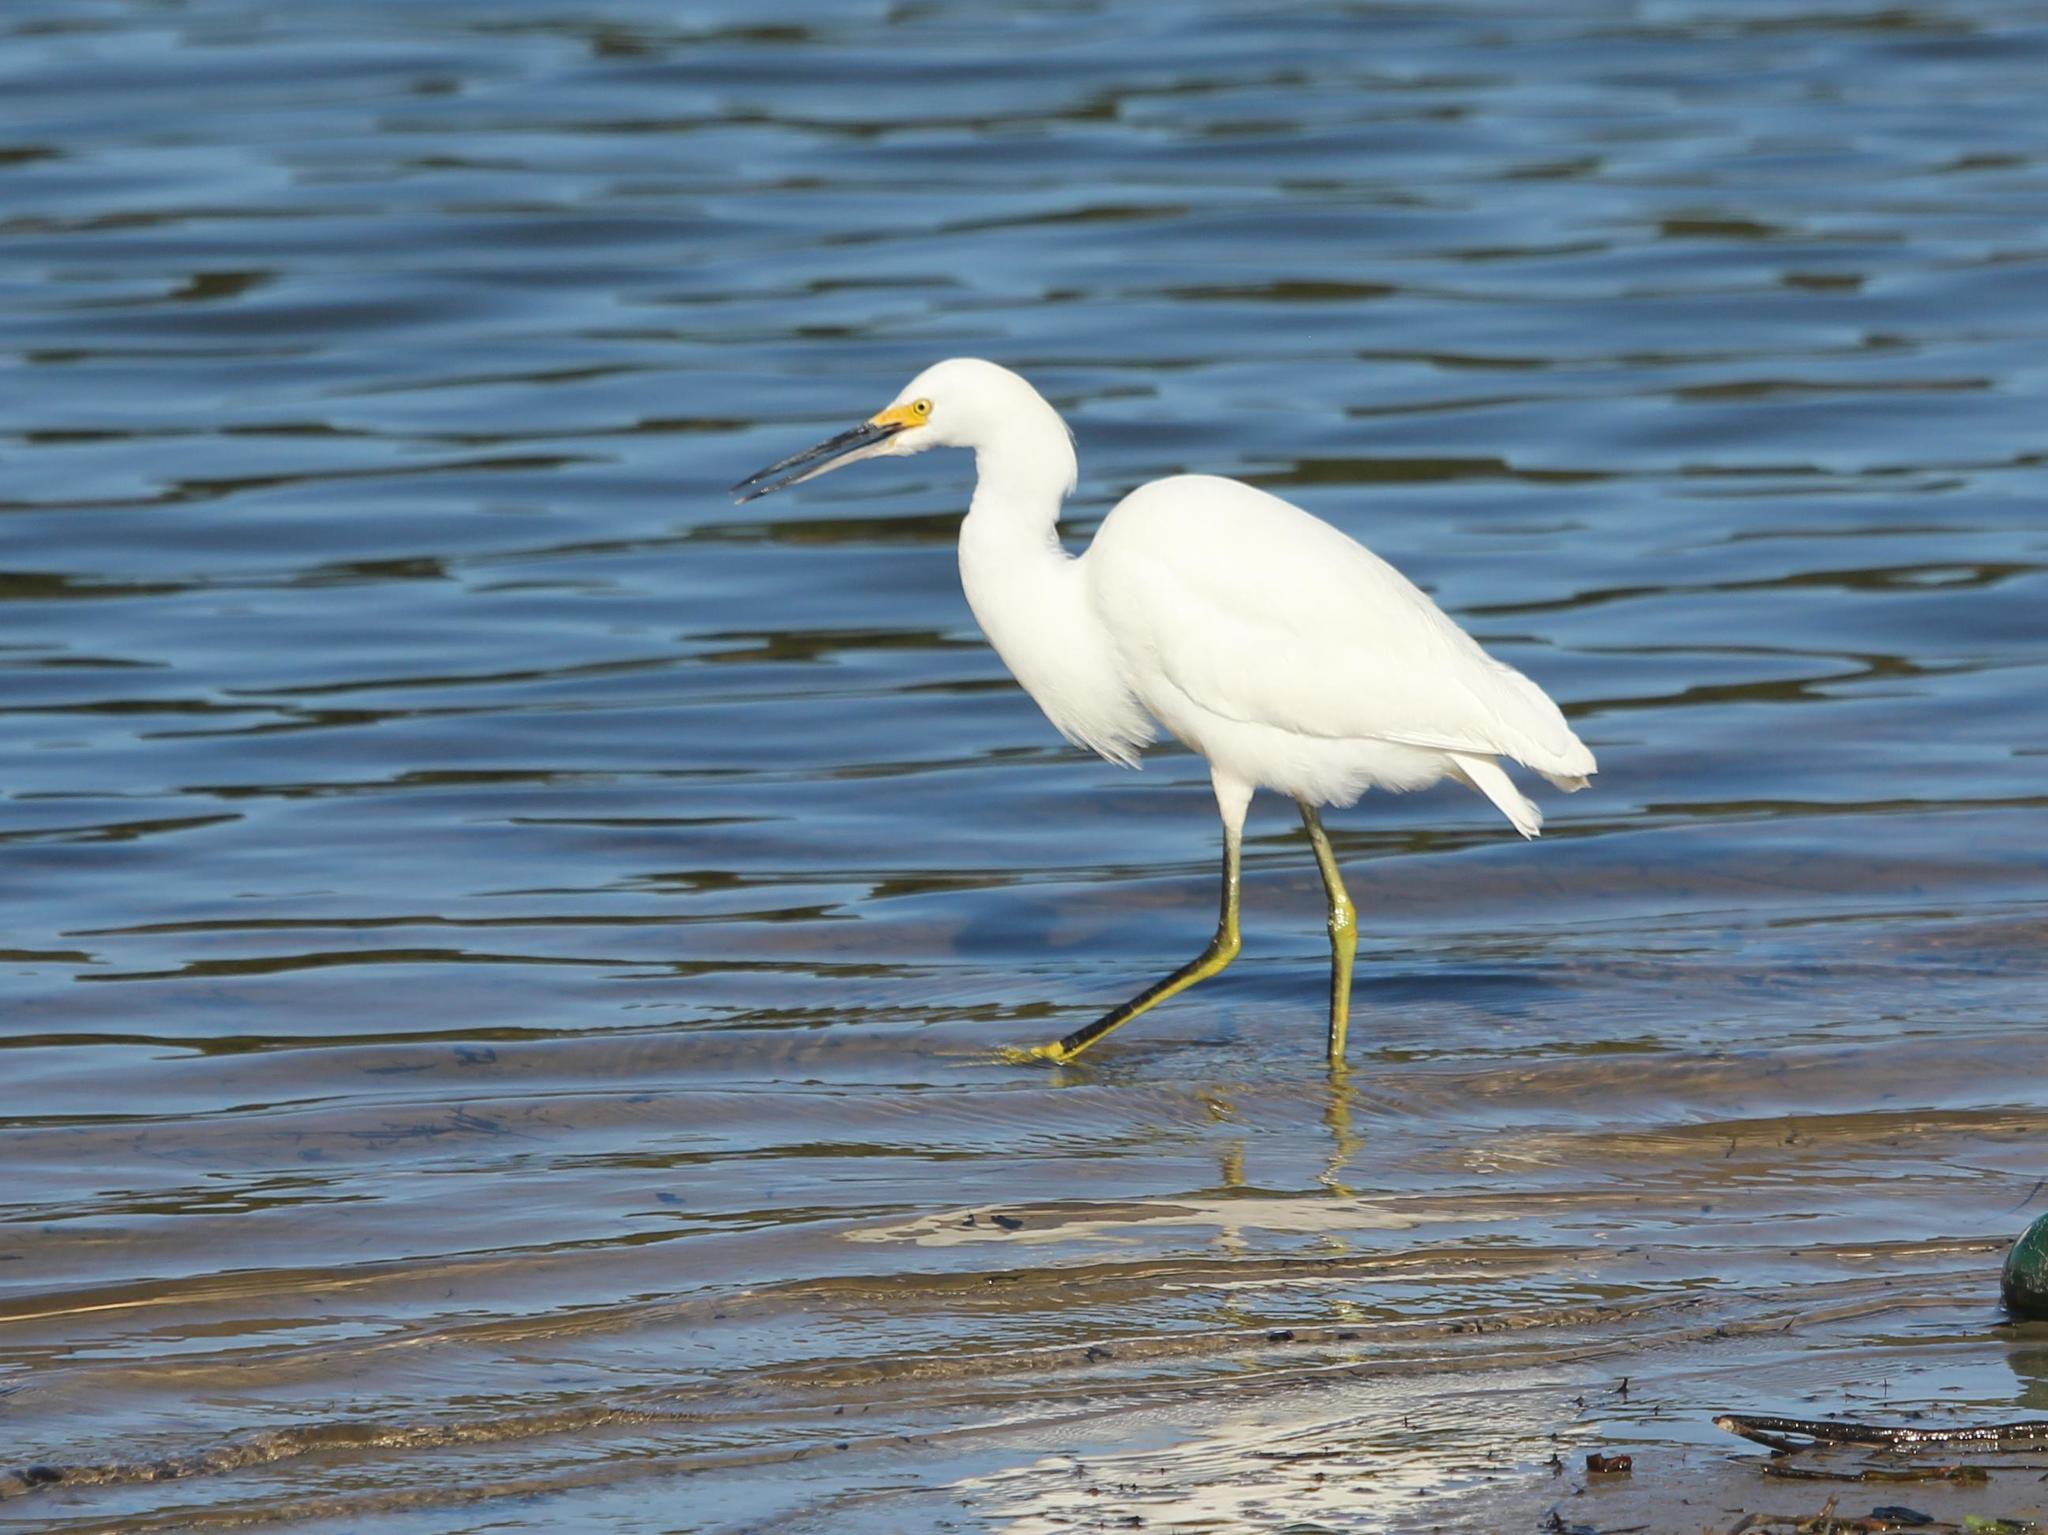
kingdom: Animalia
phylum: Chordata
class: Aves
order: Pelecaniformes
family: Ardeidae
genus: Egretta
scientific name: Egretta thula
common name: Snowy egret
